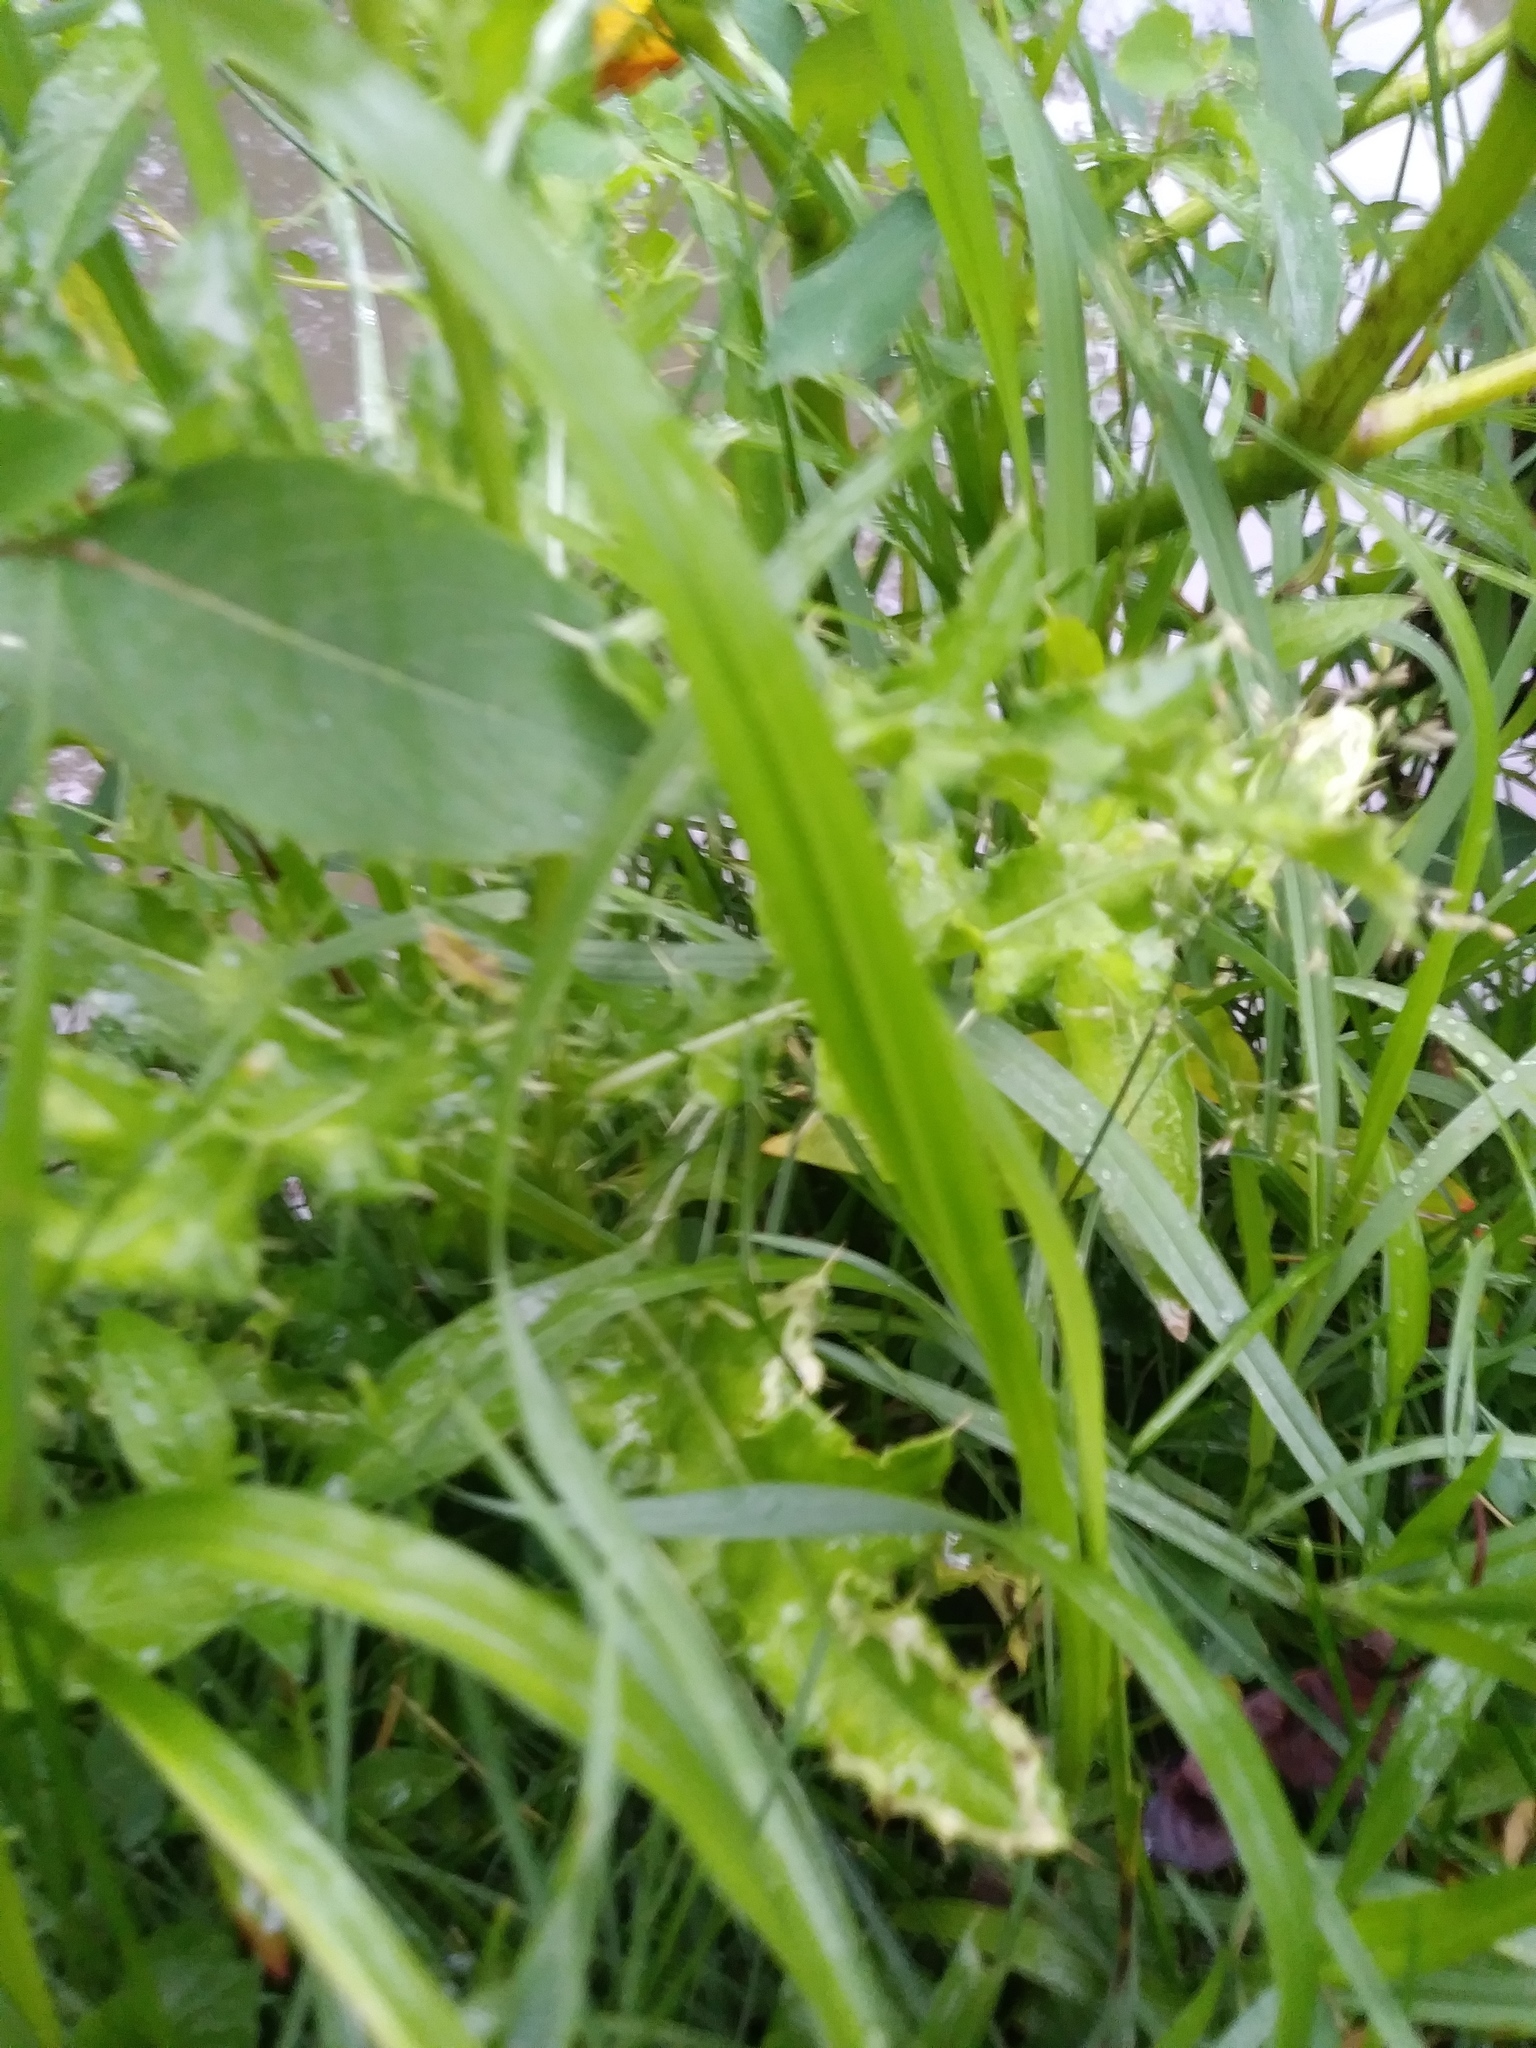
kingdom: Plantae
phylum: Tracheophyta
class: Magnoliopsida
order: Asterales
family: Asteraceae
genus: Cirsium
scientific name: Cirsium arvense
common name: Creeping thistle
